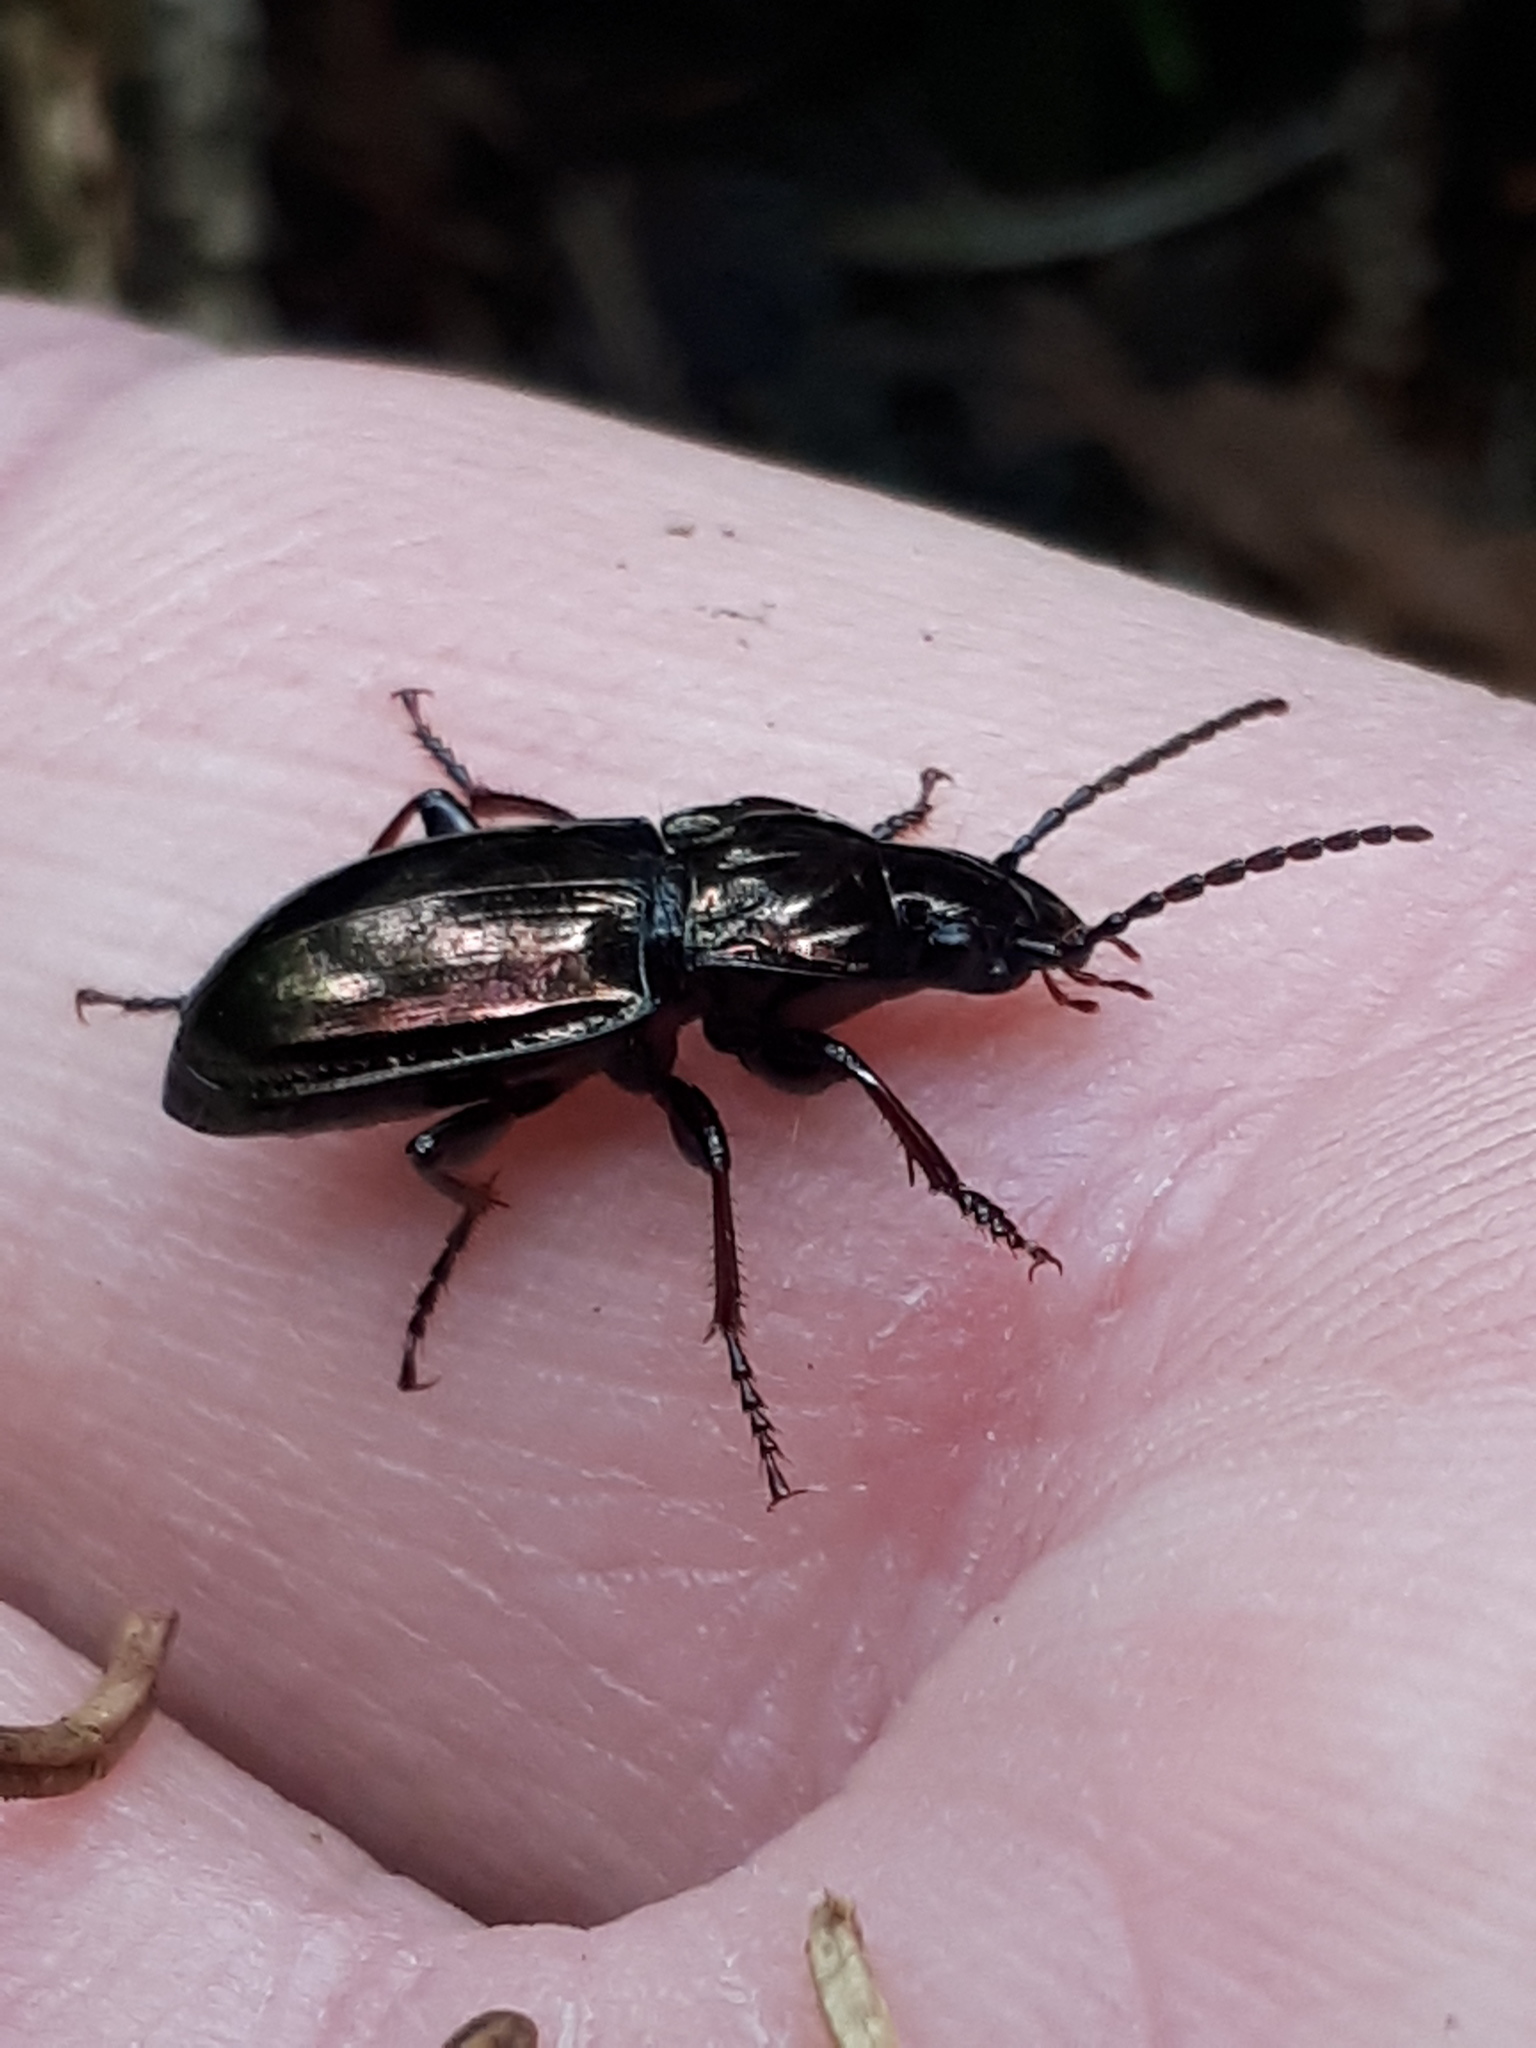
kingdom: Animalia
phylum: Arthropoda
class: Insecta
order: Coleoptera
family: Carabidae
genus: Pterostichus
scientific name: Pterostichus burmeisteri
